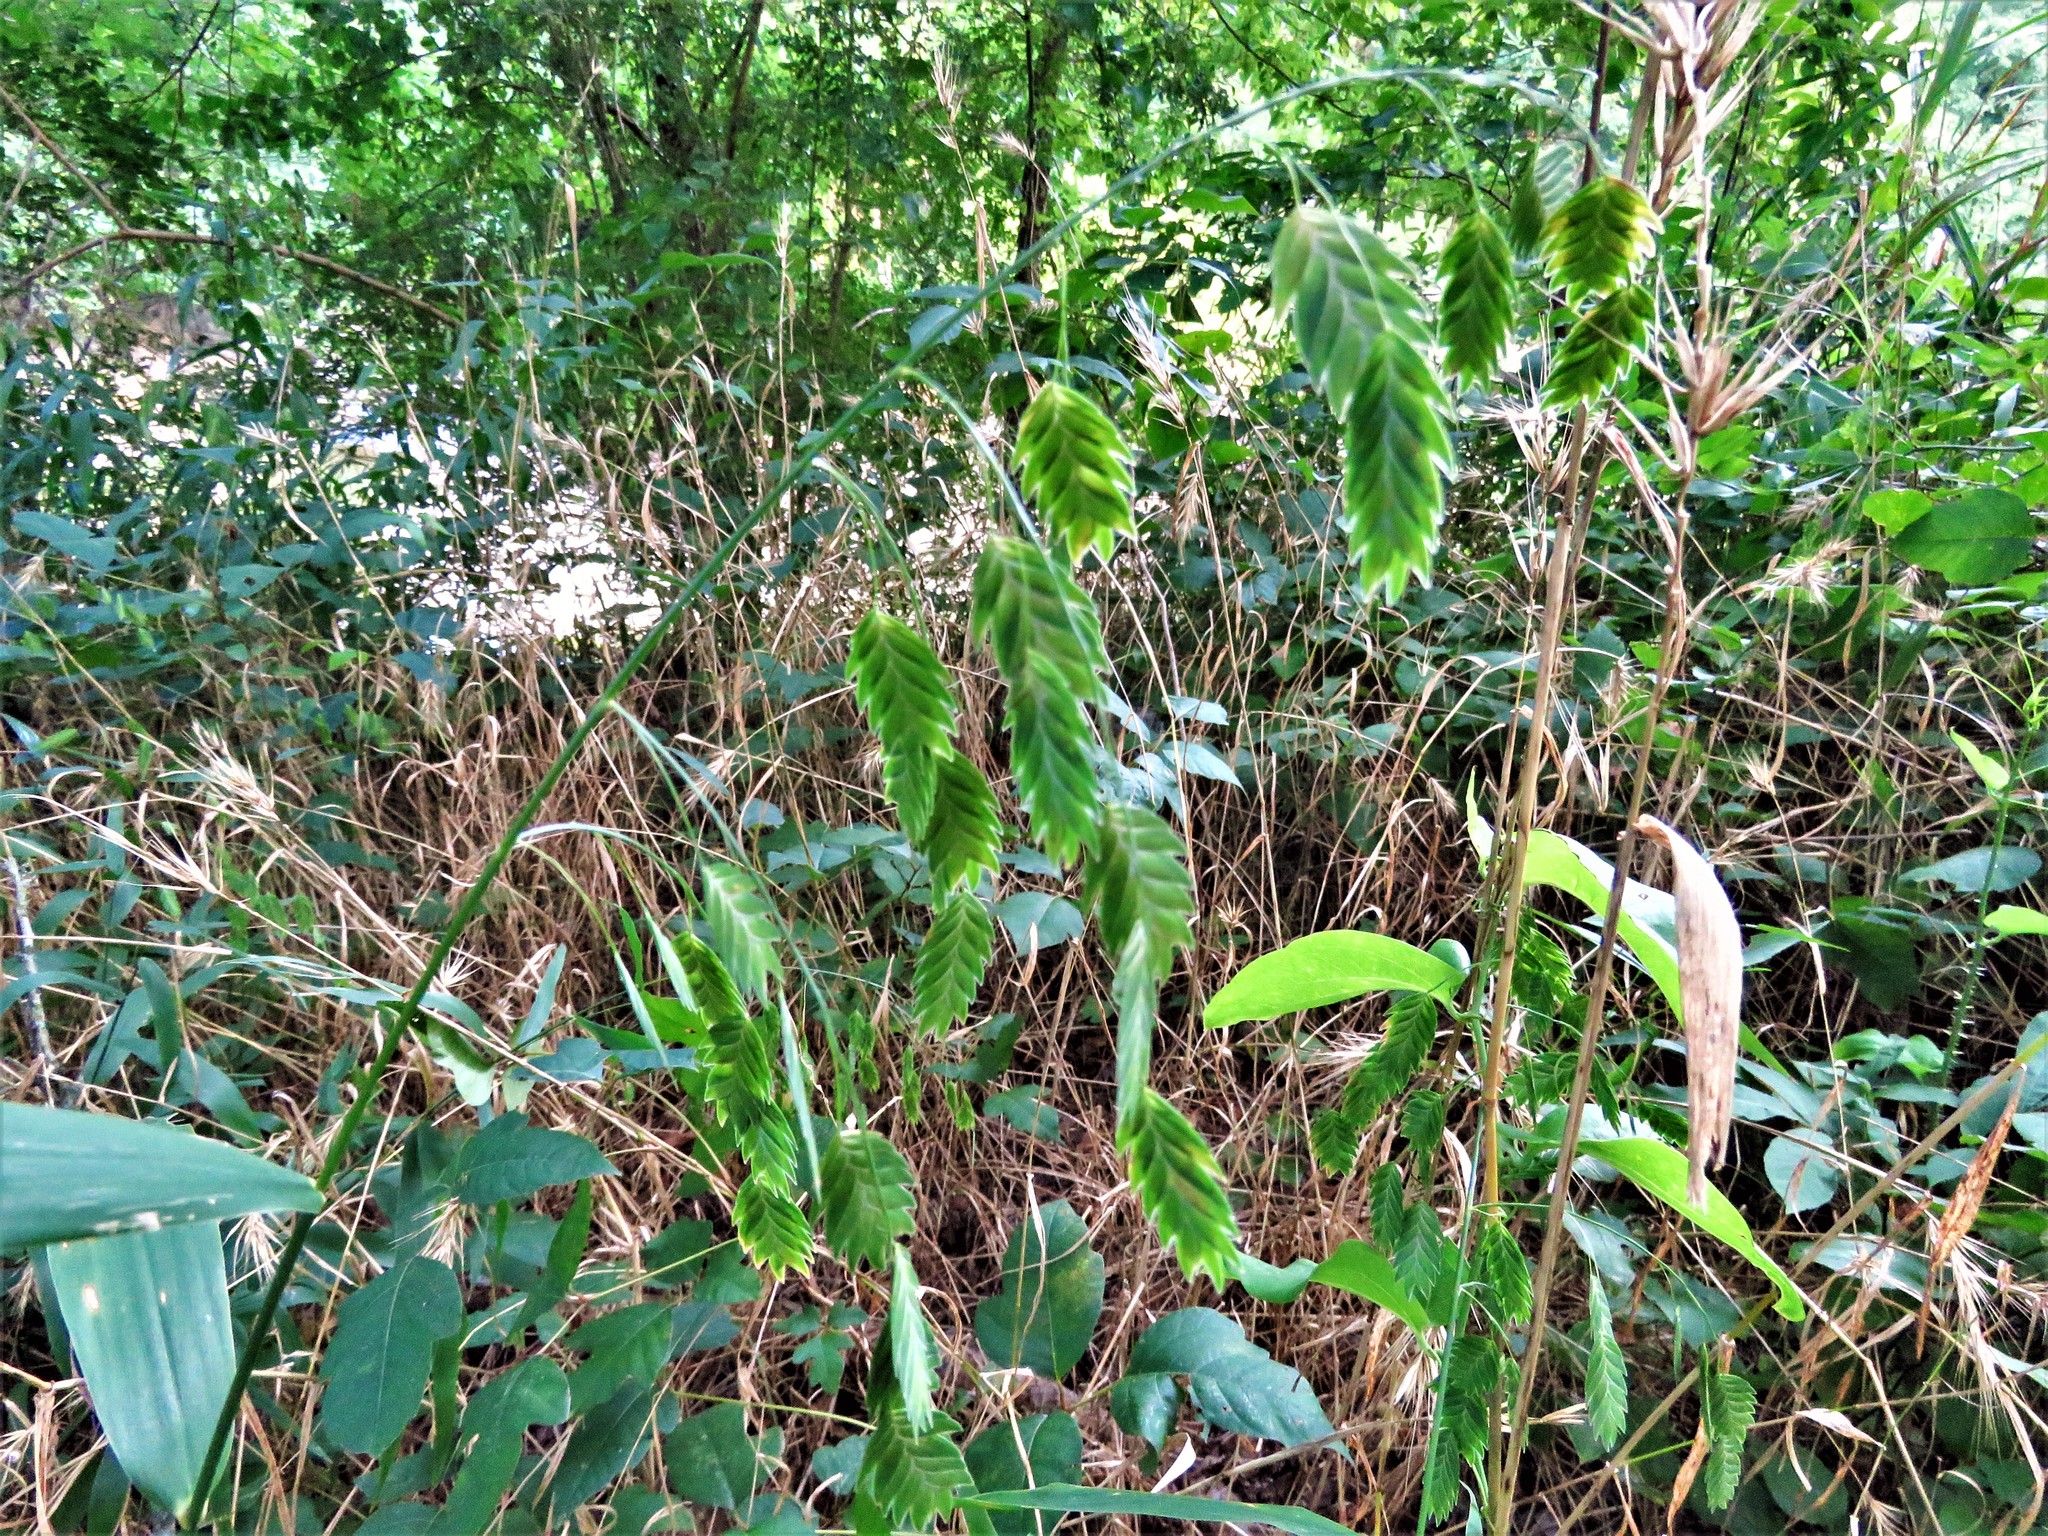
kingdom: Plantae
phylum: Tracheophyta
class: Liliopsida
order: Poales
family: Poaceae
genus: Chasmanthium
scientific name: Chasmanthium latifolium
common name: Broad-leaved chasmanthium
